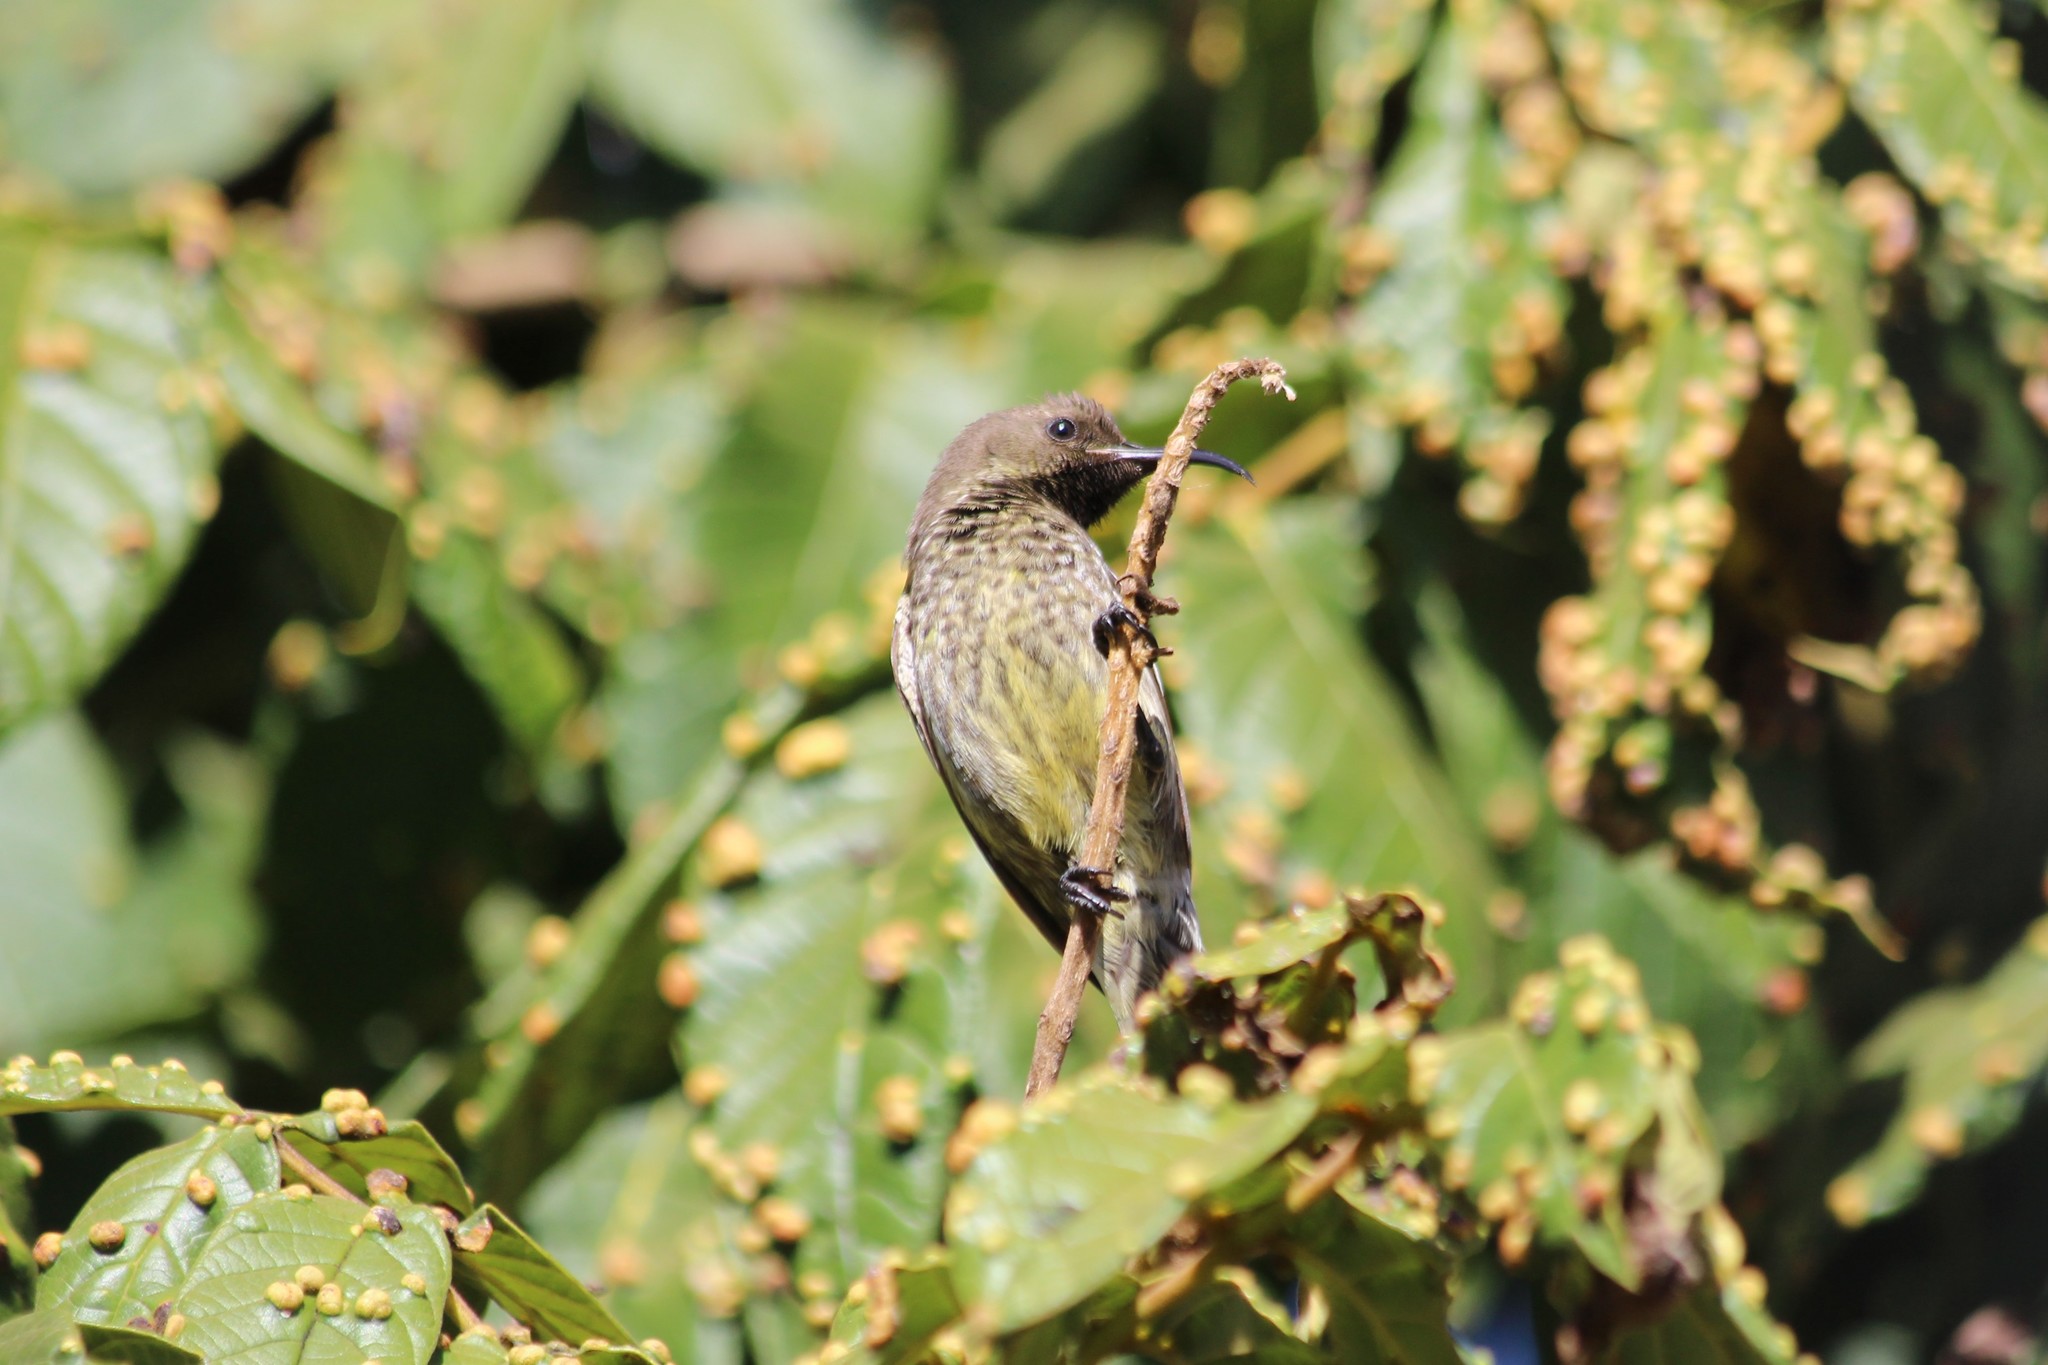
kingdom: Animalia
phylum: Chordata
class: Aves
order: Passeriformes
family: Nectariniidae
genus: Chalcomitra
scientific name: Chalcomitra senegalensis
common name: Scarlet-chested sunbird
